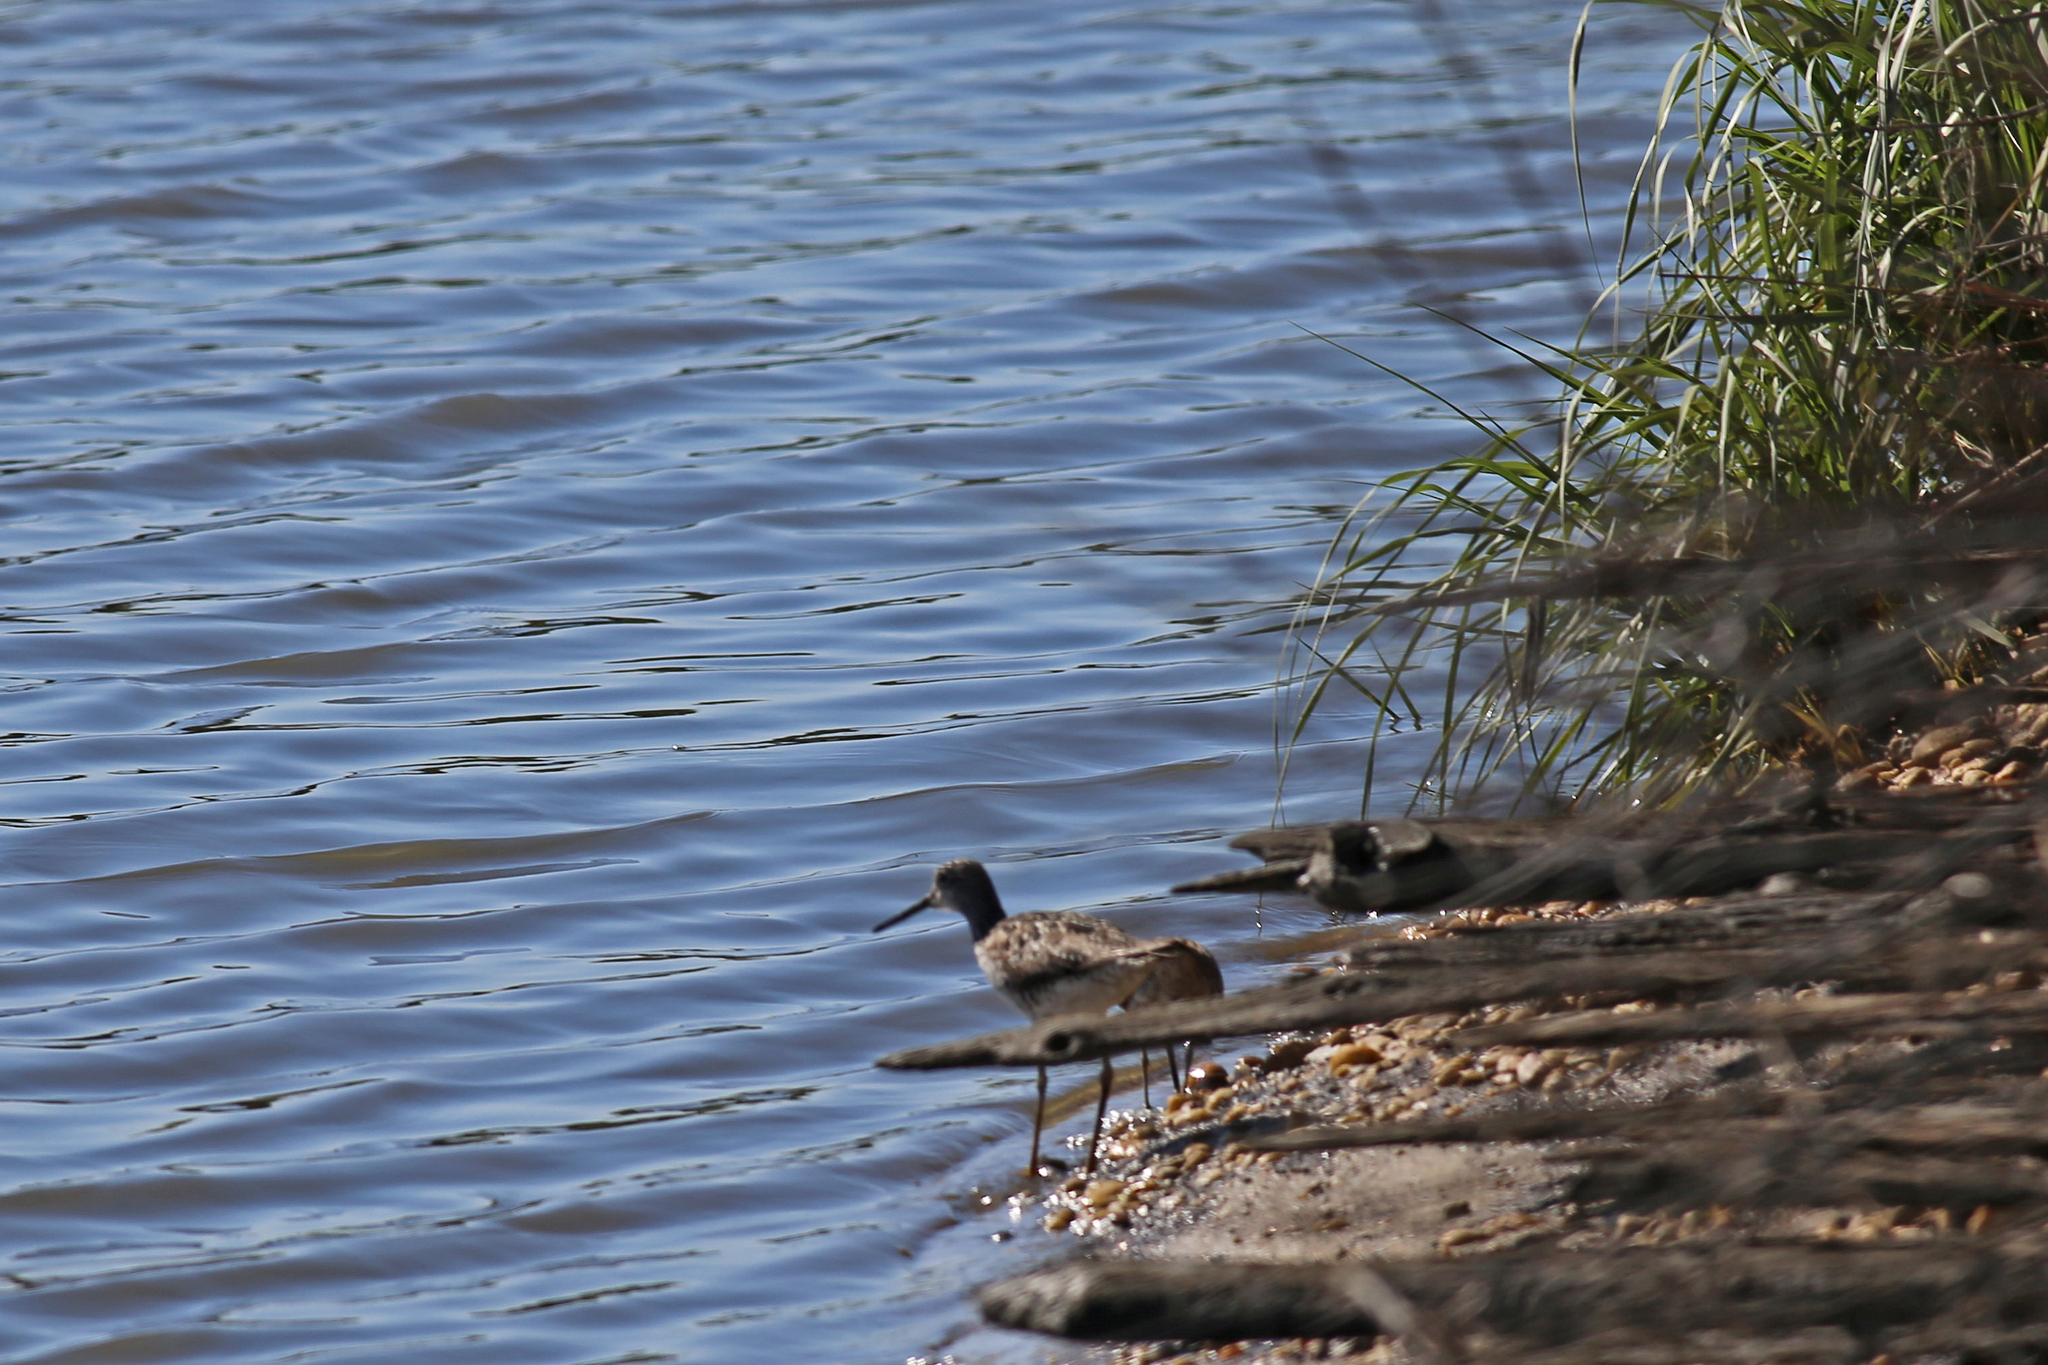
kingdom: Animalia
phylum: Chordata
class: Aves
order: Charadriiformes
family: Scolopacidae
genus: Tringa
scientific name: Tringa melanoleuca
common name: Greater yellowlegs
